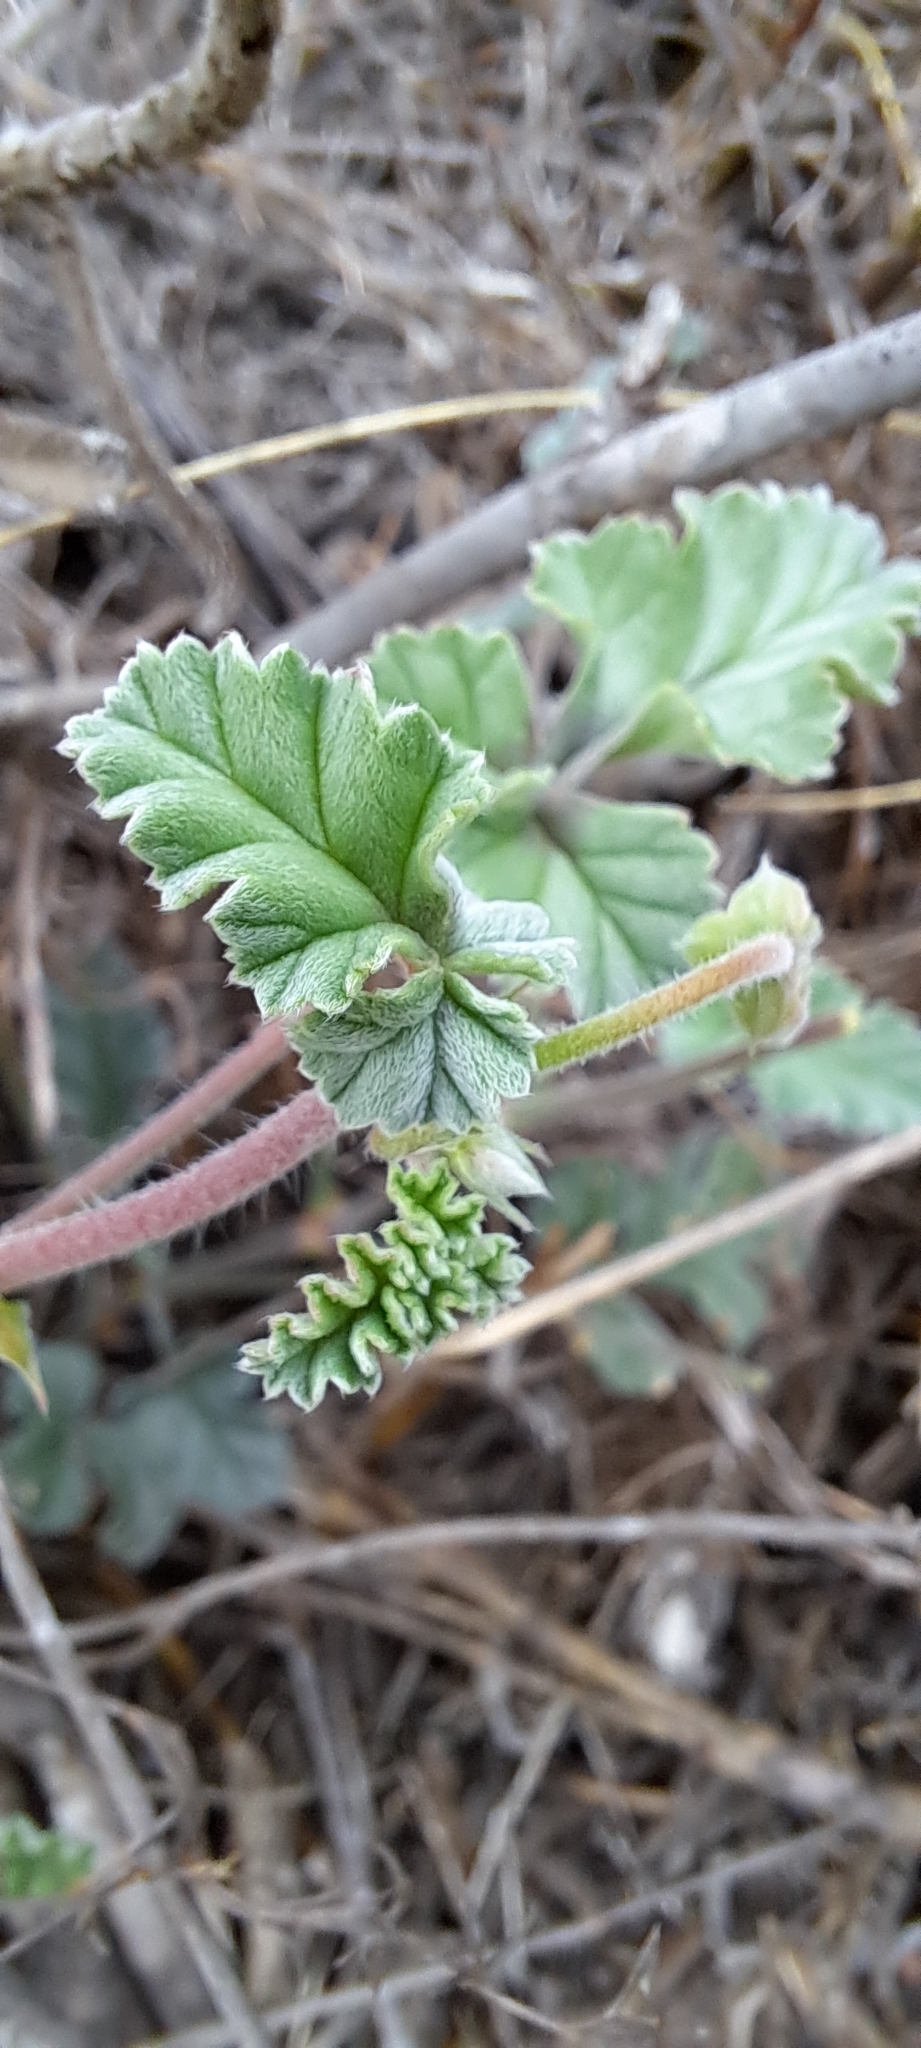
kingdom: Plantae
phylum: Tracheophyta
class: Magnoliopsida
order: Geraniales
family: Geraniaceae
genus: Pelargonium
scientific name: Pelargonium candicans
